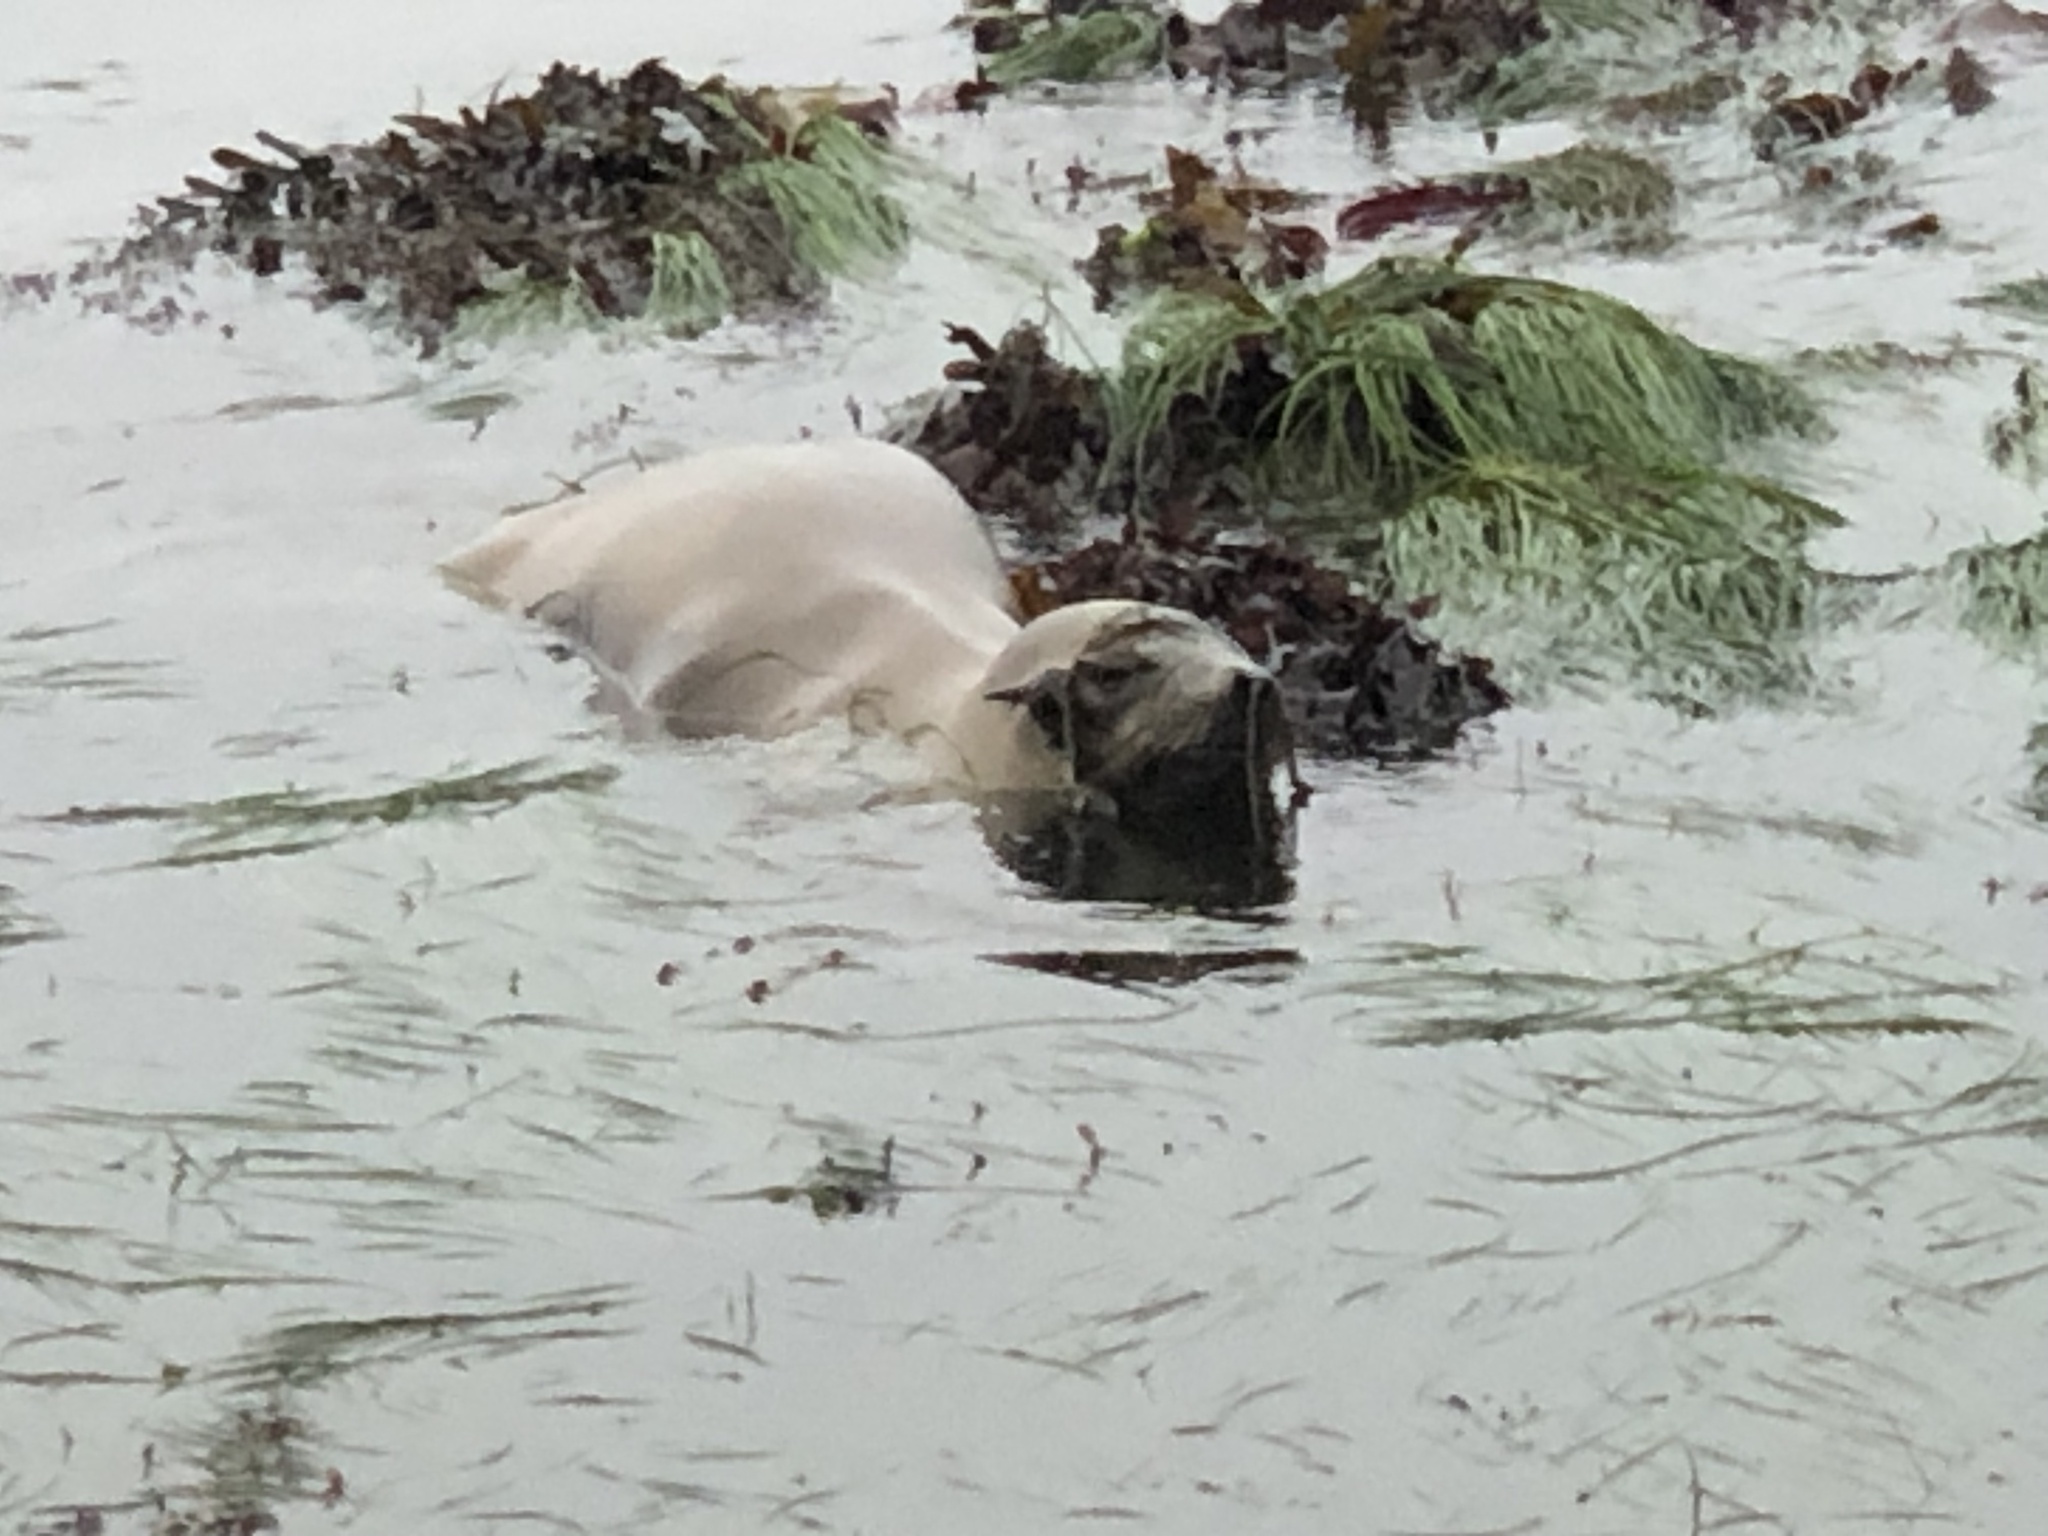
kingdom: Animalia
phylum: Chordata
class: Mammalia
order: Carnivora
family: Otariidae
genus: Zalophus
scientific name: Zalophus californianus
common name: California sea lion
